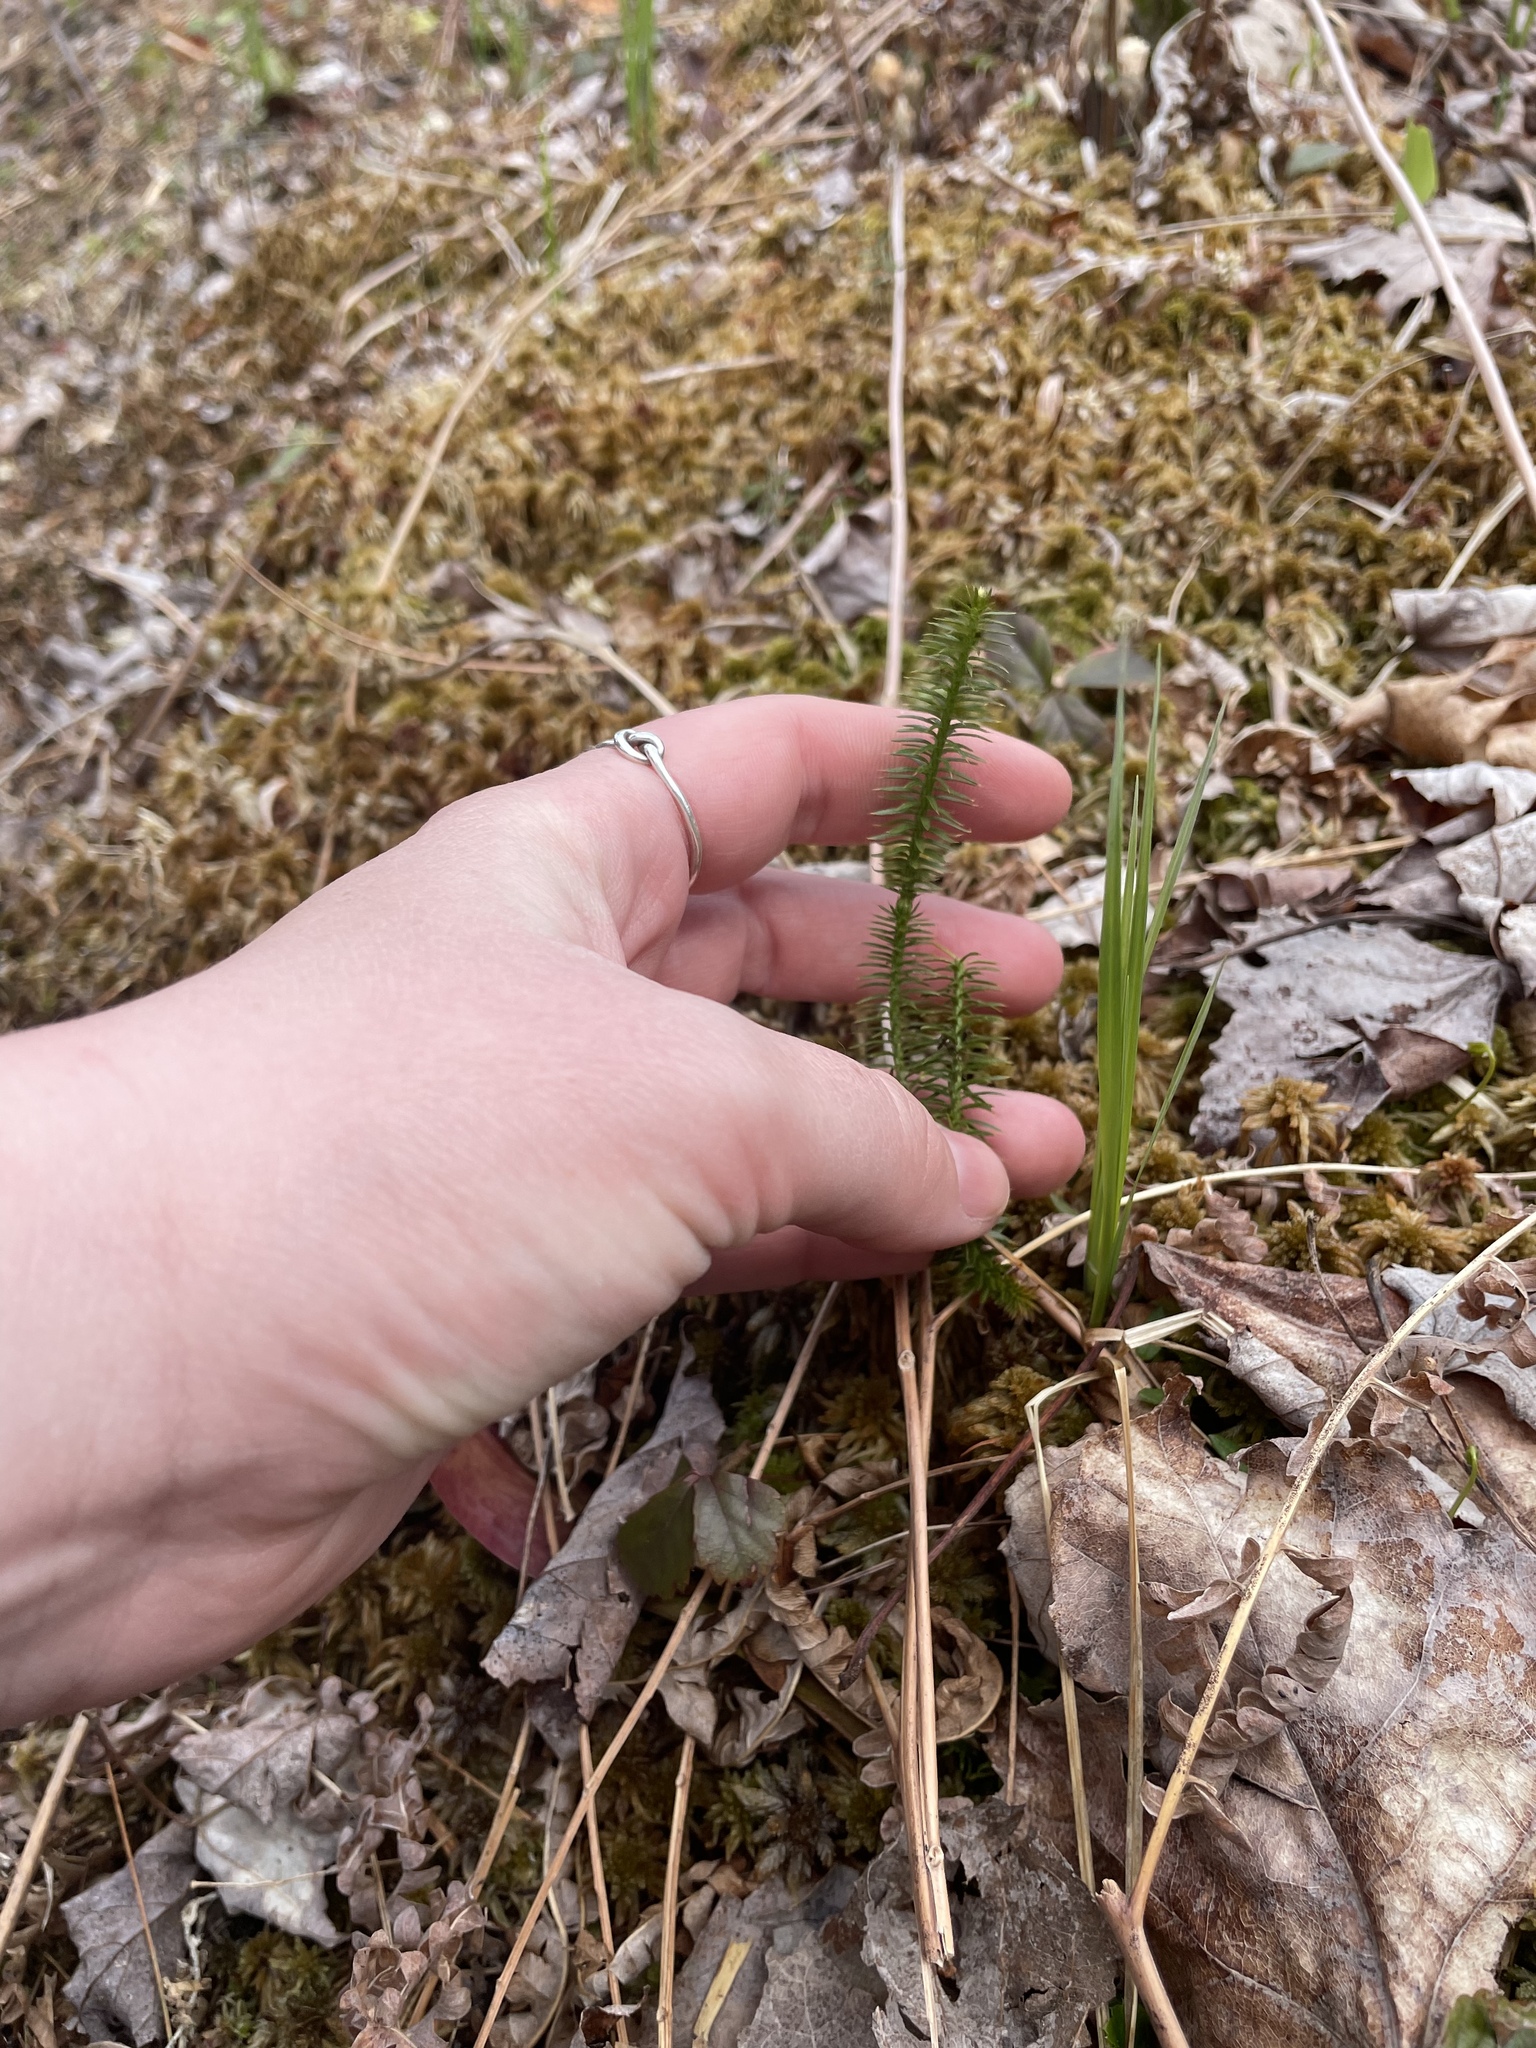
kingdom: Plantae
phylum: Tracheophyta
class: Lycopodiopsida
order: Lycopodiales
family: Lycopodiaceae
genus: Spinulum
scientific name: Spinulum annotinum
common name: Interrupted club-moss
